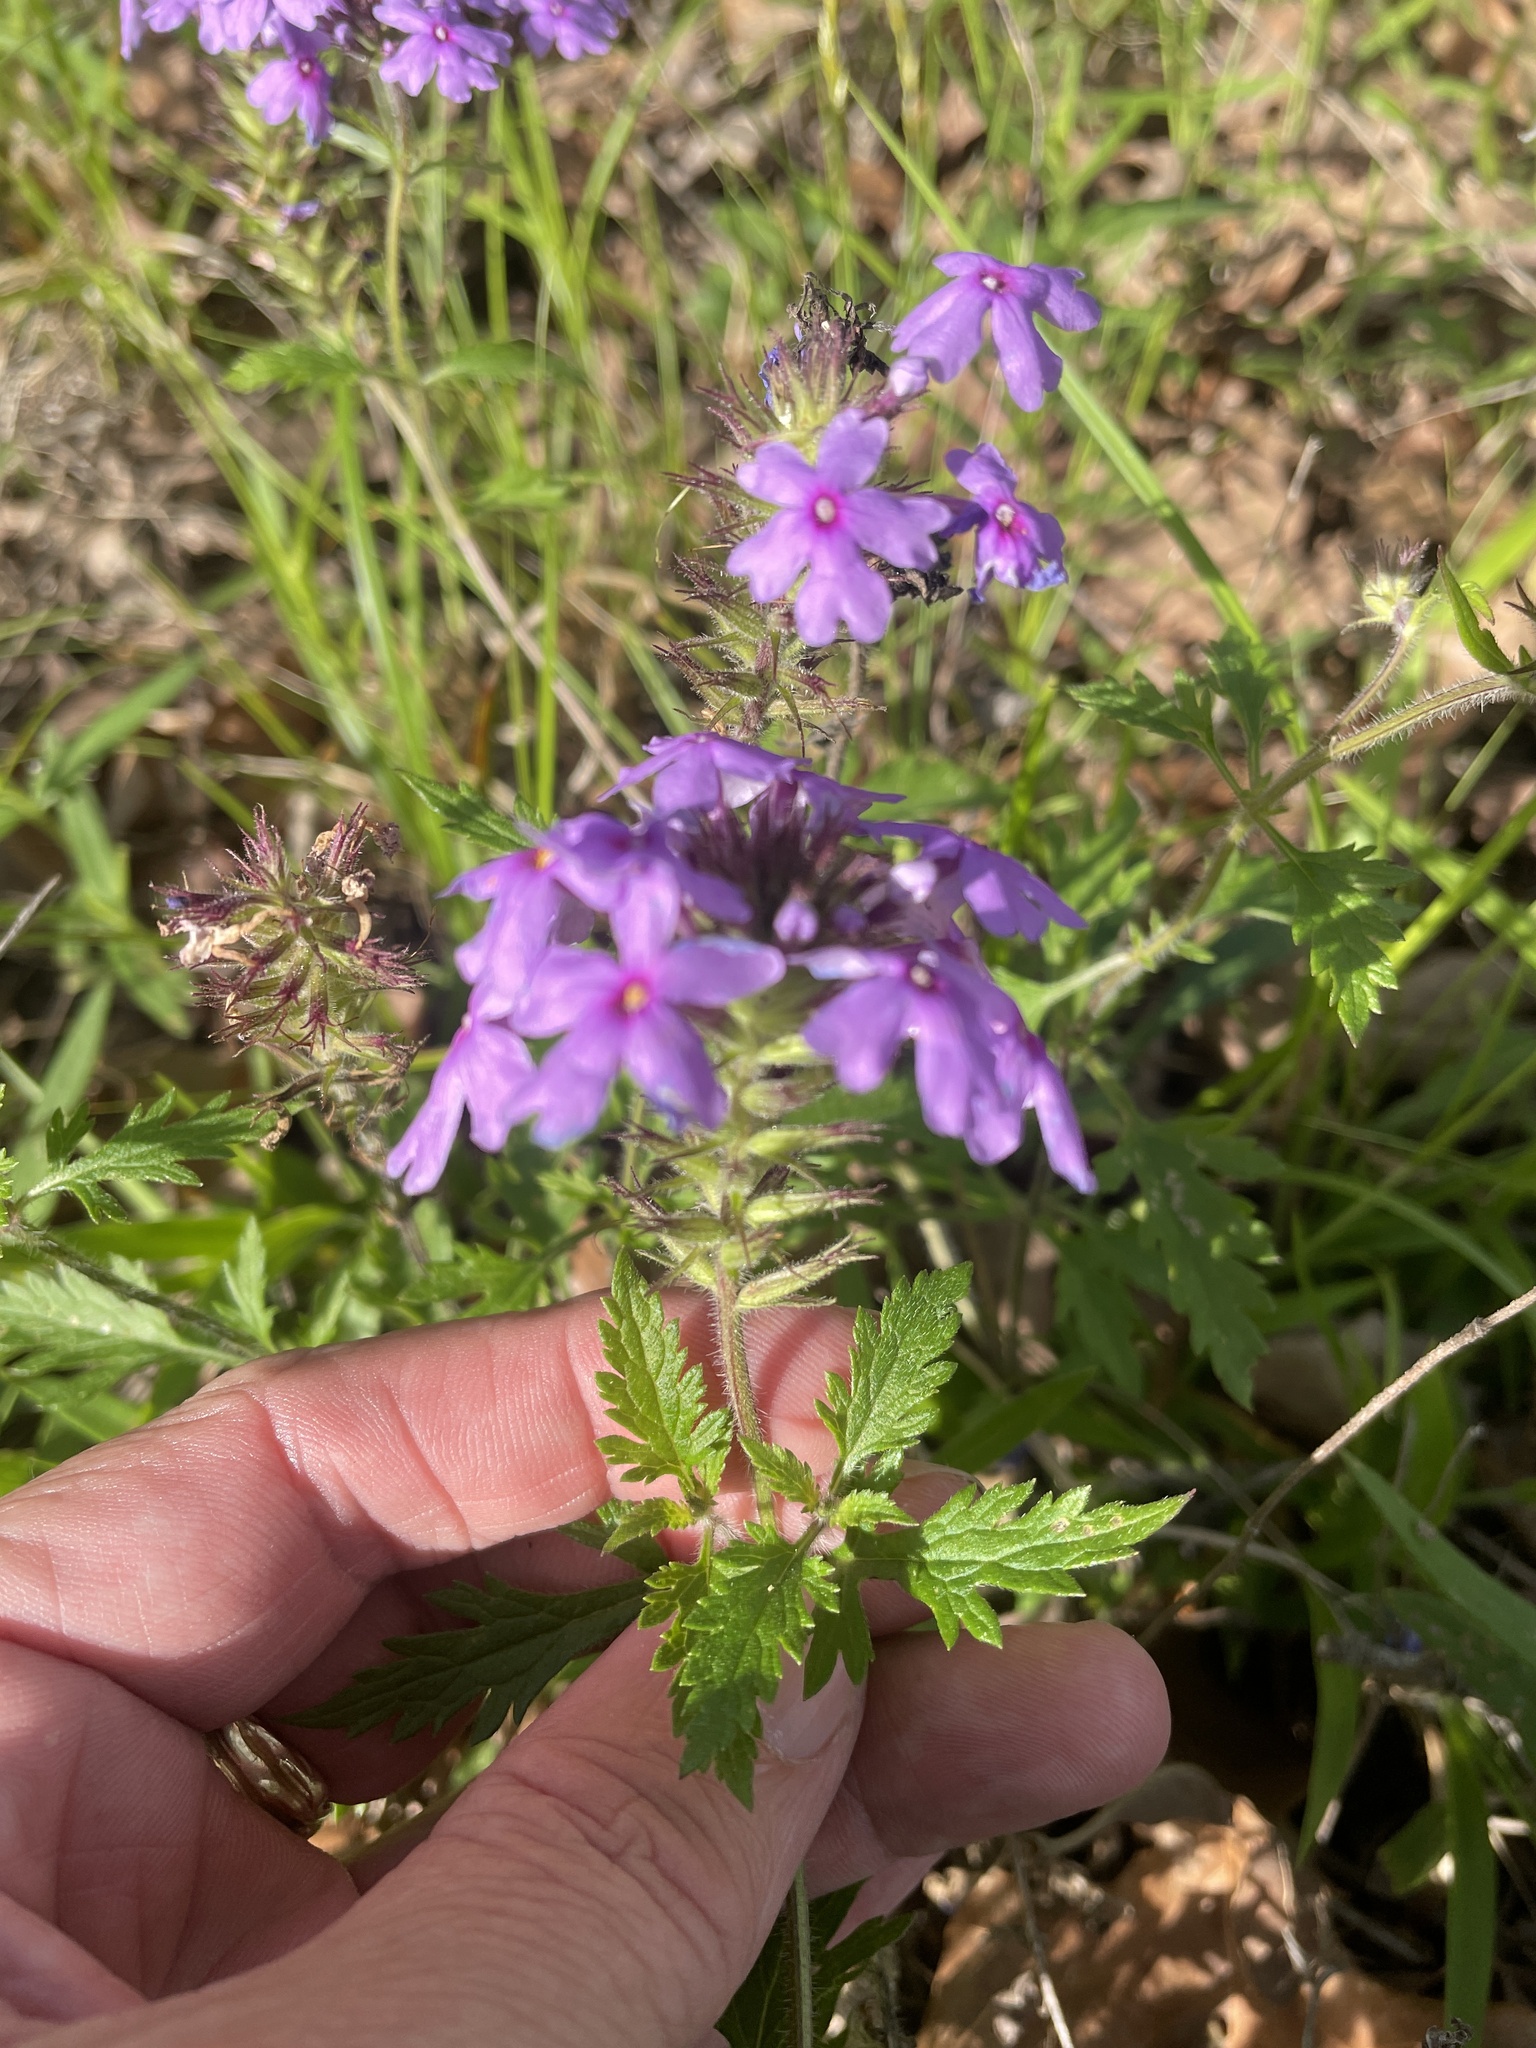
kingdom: Plantae
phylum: Tracheophyta
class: Magnoliopsida
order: Lamiales
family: Verbenaceae
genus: Verbena
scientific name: Verbena canadensis
